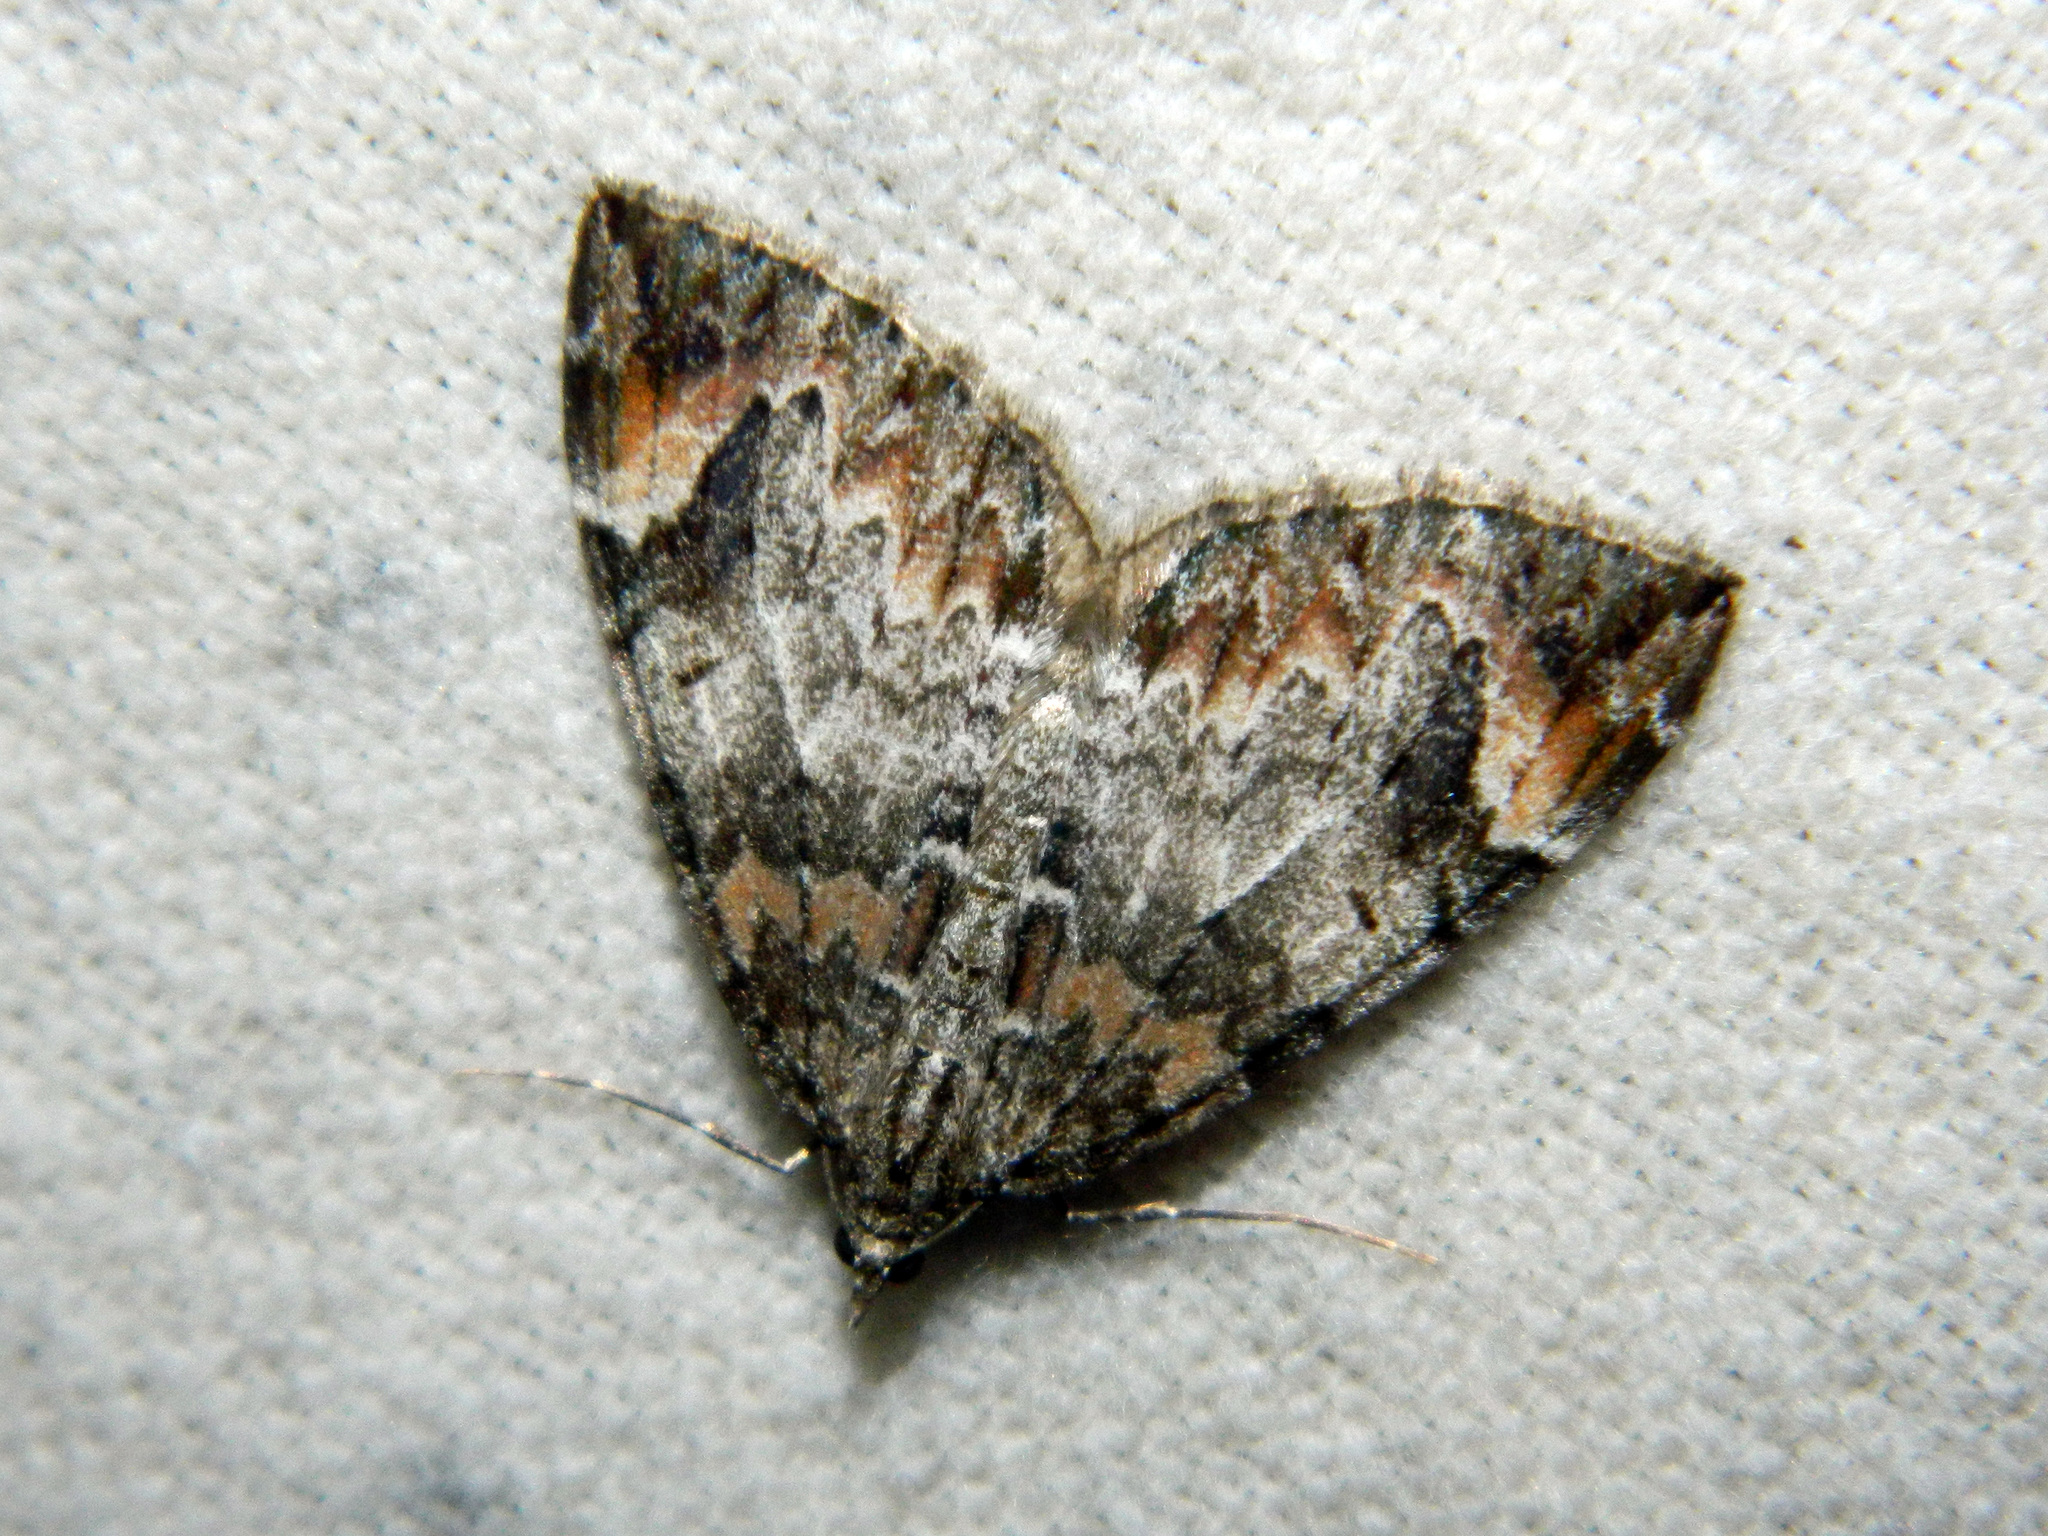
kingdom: Animalia
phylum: Arthropoda
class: Insecta
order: Lepidoptera
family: Geometridae
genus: Dysstroma
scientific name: Dysstroma citrata
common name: Dark marbled carpet
